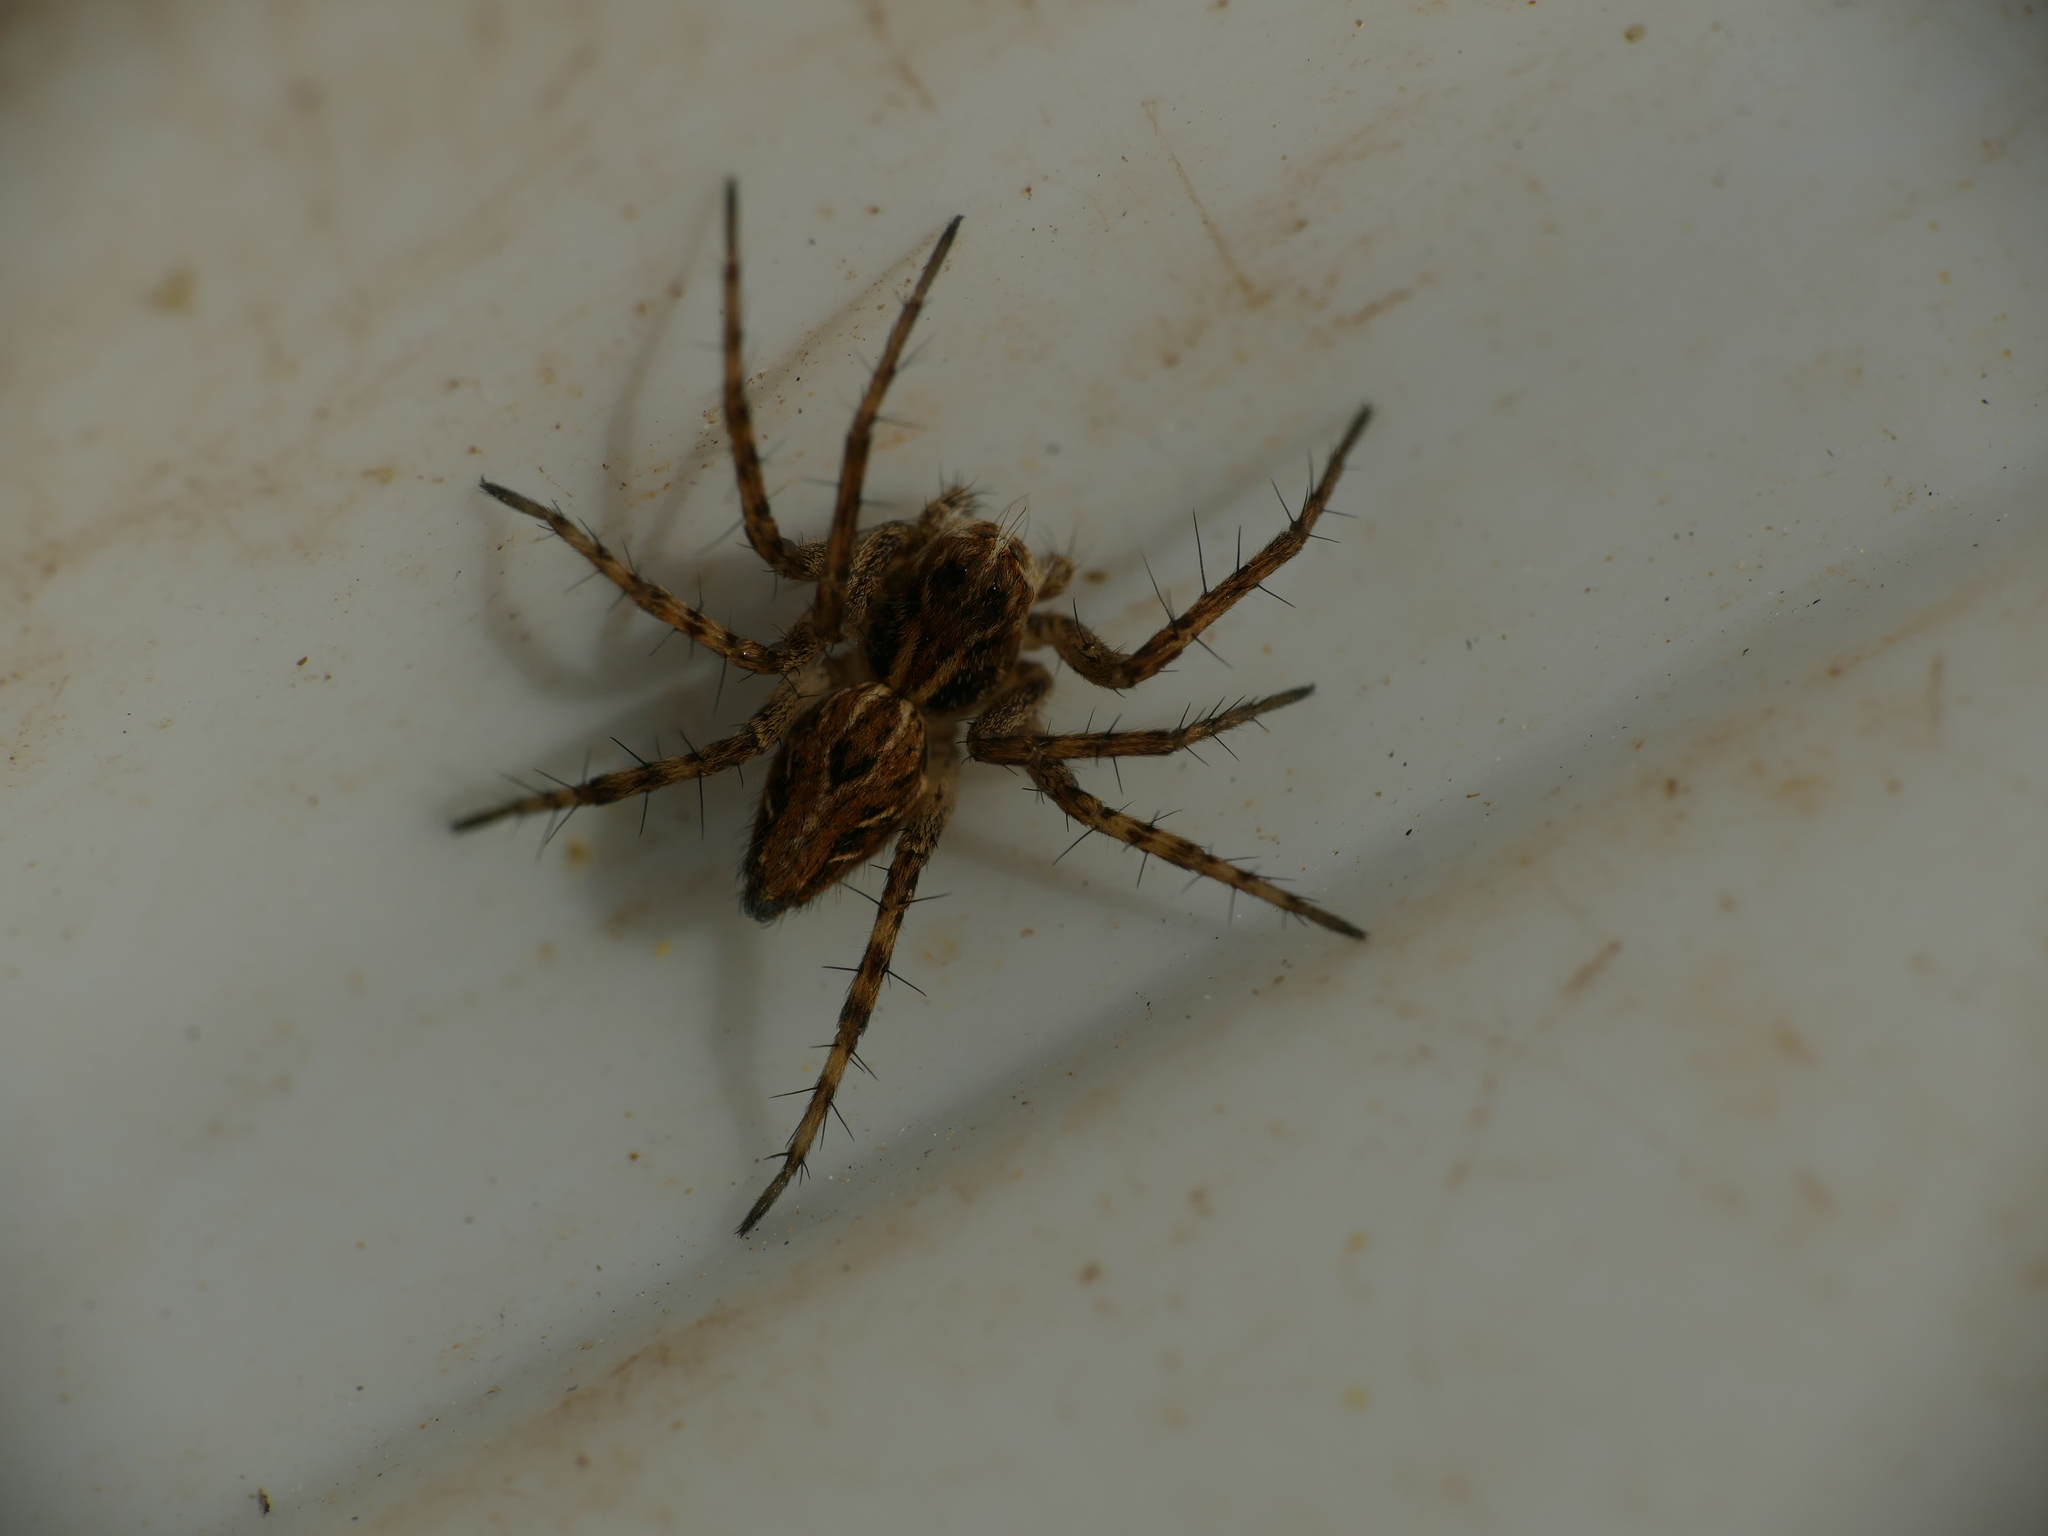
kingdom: Animalia
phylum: Arthropoda
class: Arachnida
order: Araneae
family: Oxyopidae
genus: Oxyopes
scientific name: Oxyopes heterophthalmus
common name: Lynx spider
